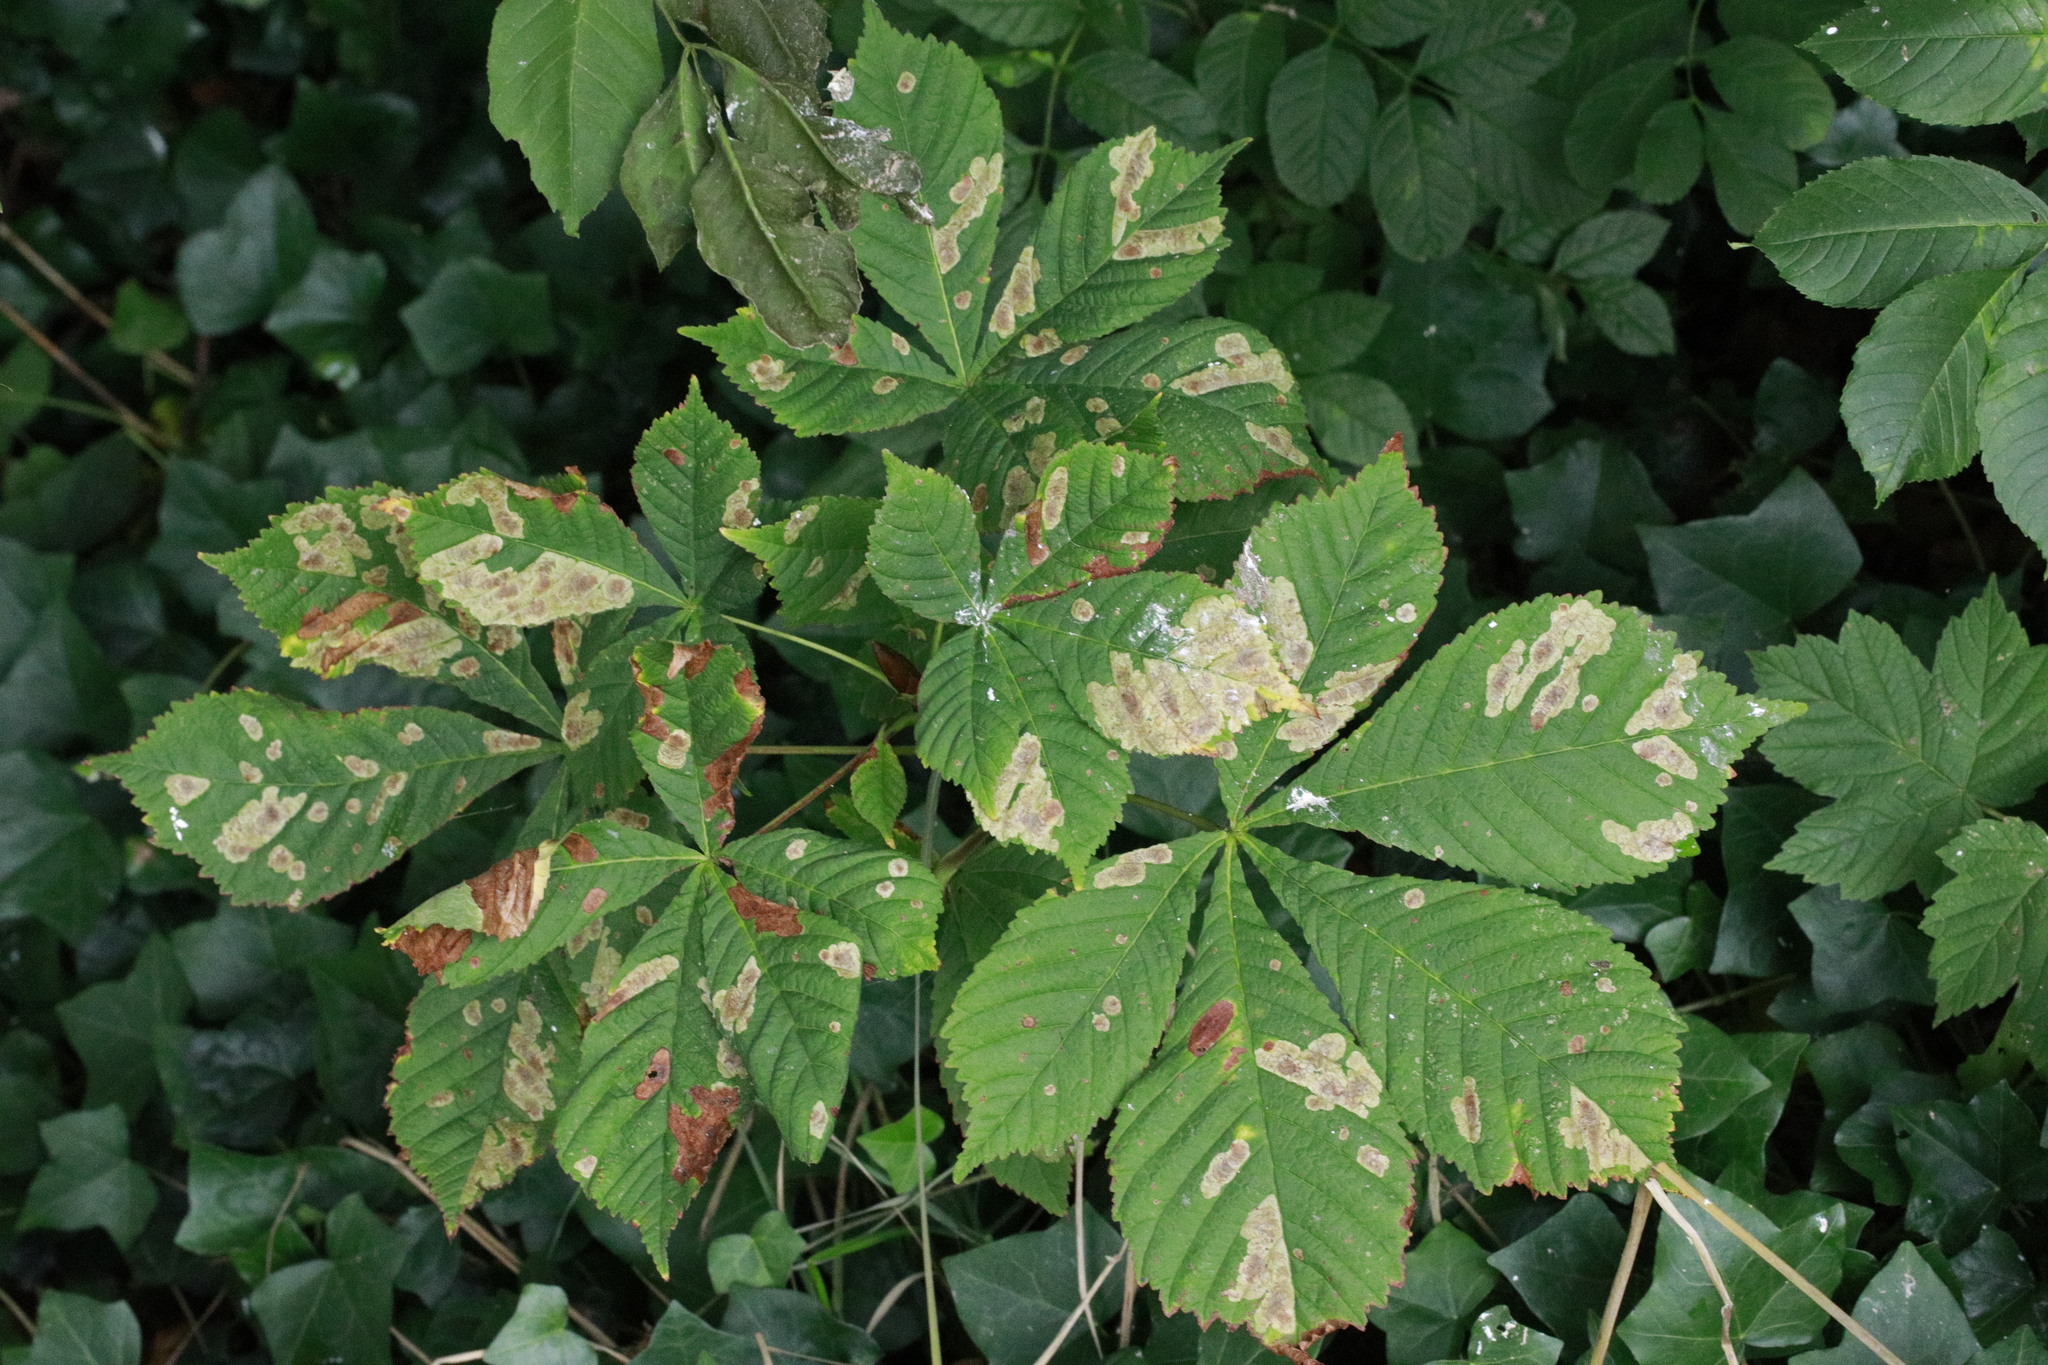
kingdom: Animalia
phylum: Arthropoda
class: Insecta
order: Lepidoptera
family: Gracillariidae
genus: Cameraria
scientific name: Cameraria ohridella
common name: Horse-chestnut leaf-miner
